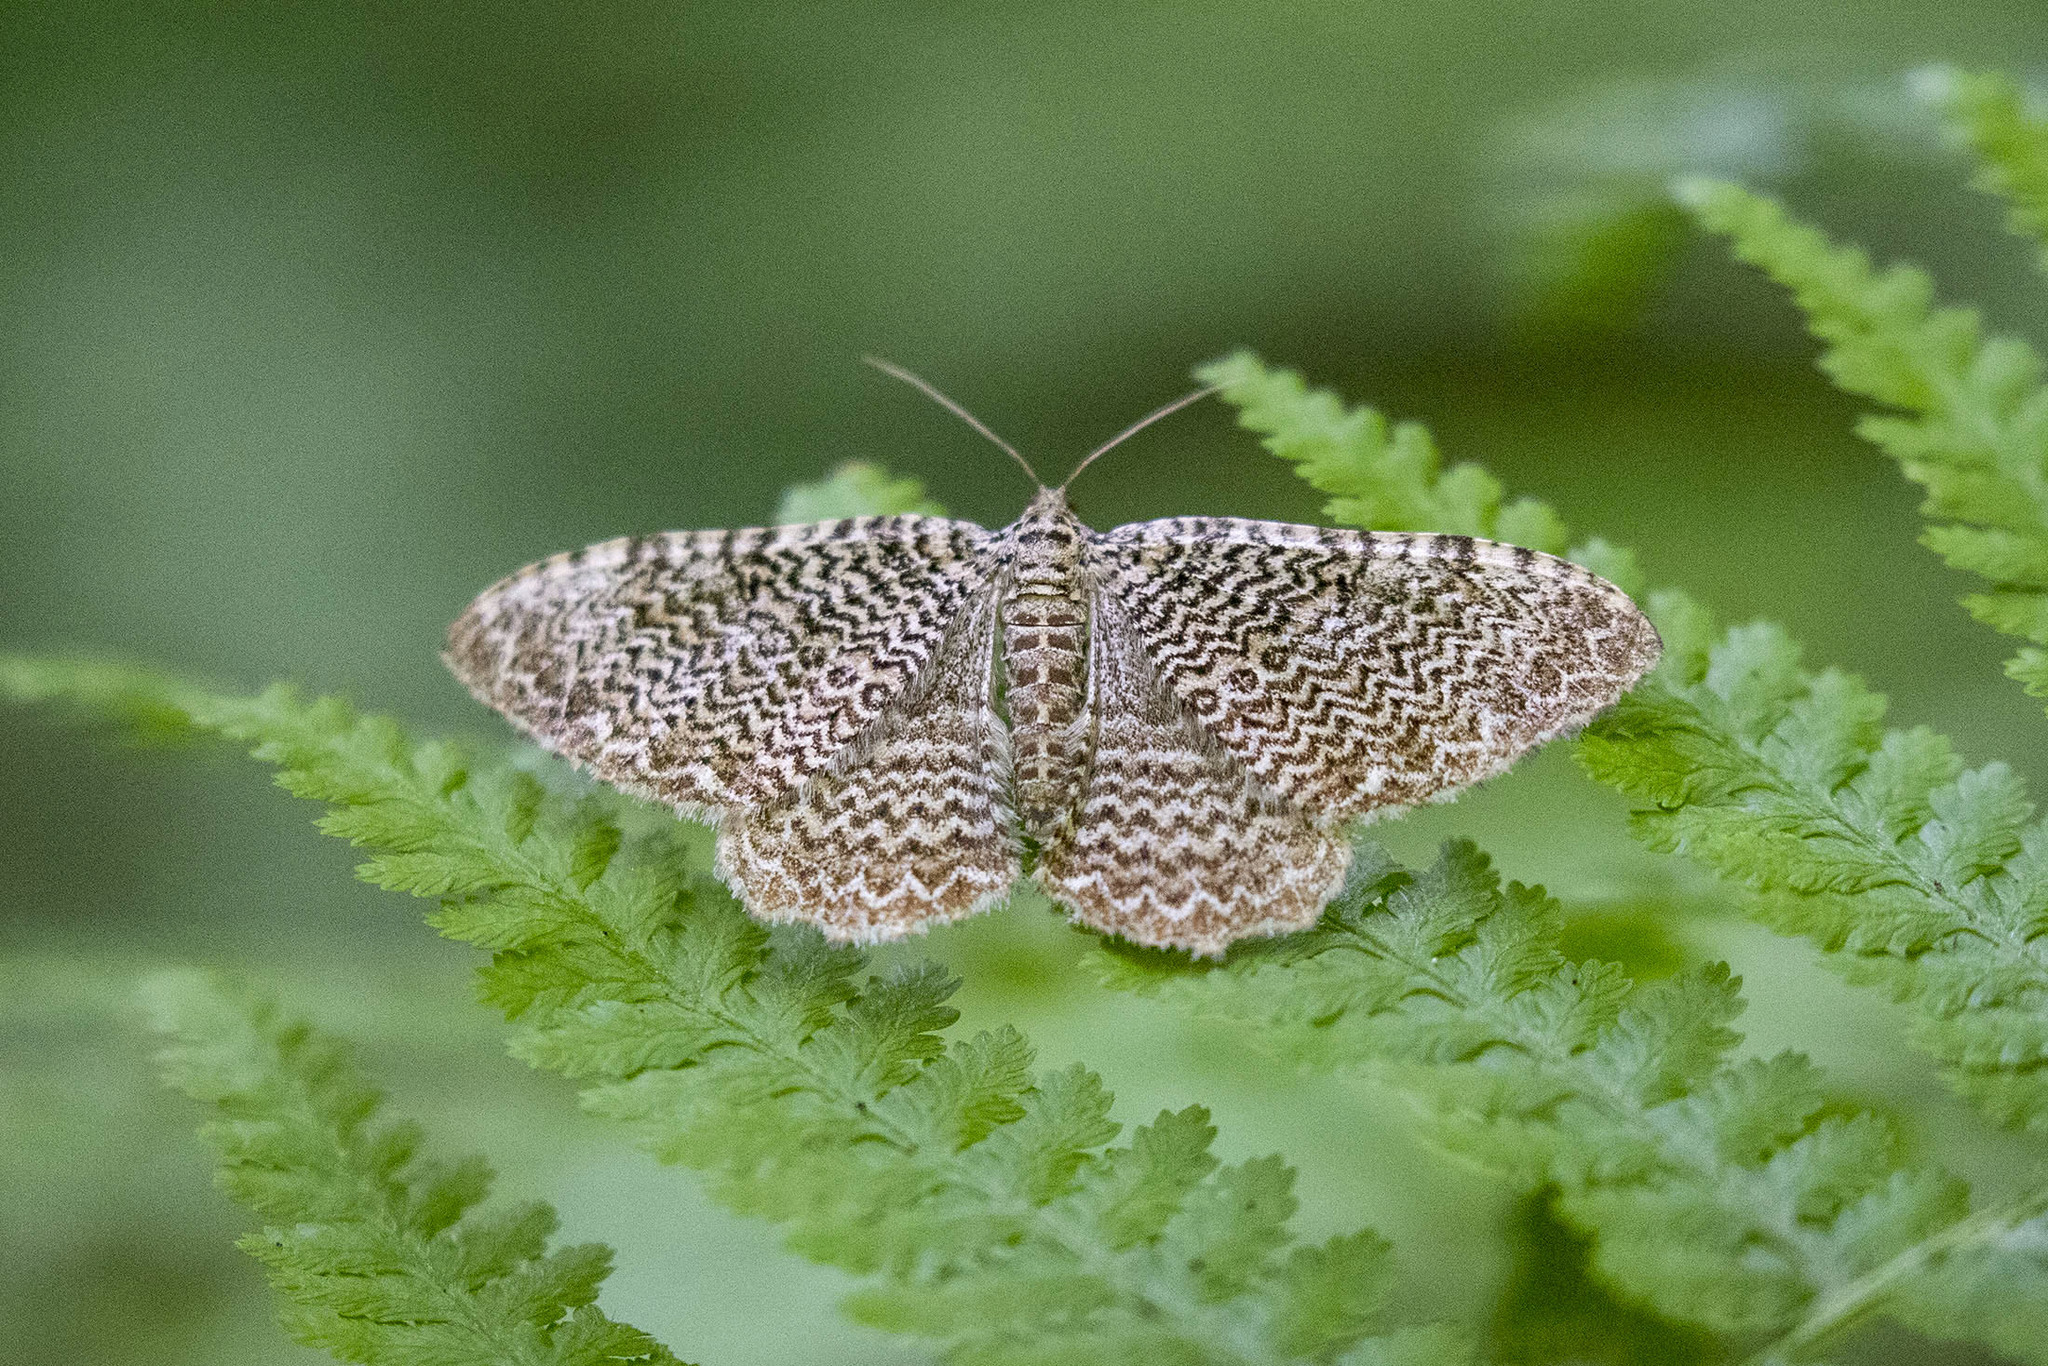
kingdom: Animalia
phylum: Arthropoda
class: Insecta
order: Lepidoptera
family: Geometridae
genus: Rheumaptera
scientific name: Rheumaptera prunivorata
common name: Cherry scallop shell moth
